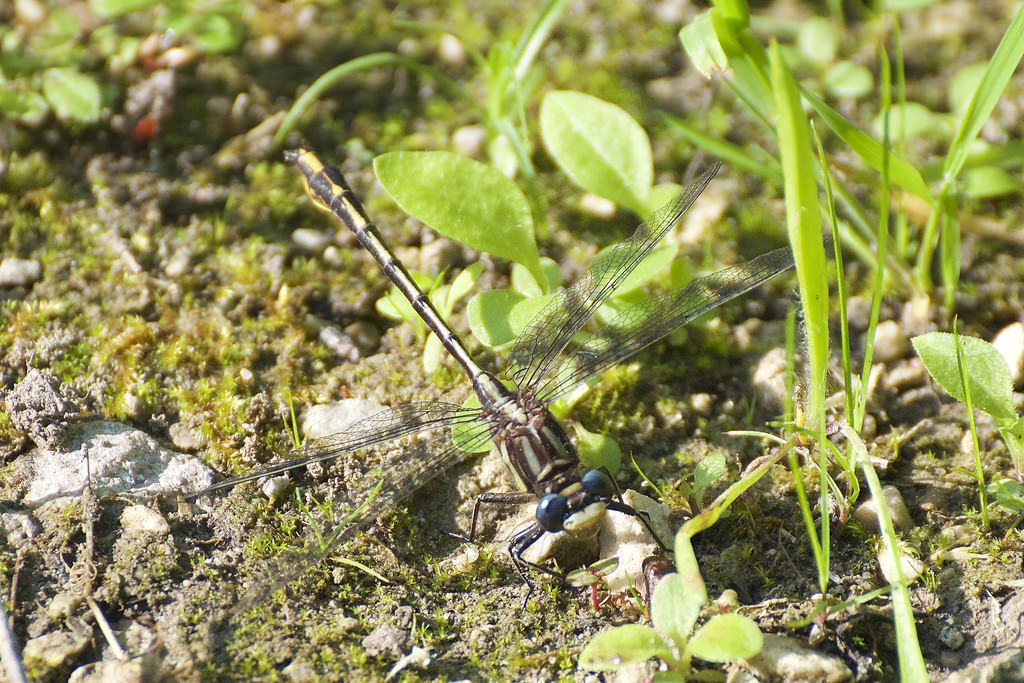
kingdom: Animalia
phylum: Arthropoda
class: Insecta
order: Odonata
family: Gomphidae
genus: Phanogomphus
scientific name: Phanogomphus exilis
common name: Lancet clubtail
